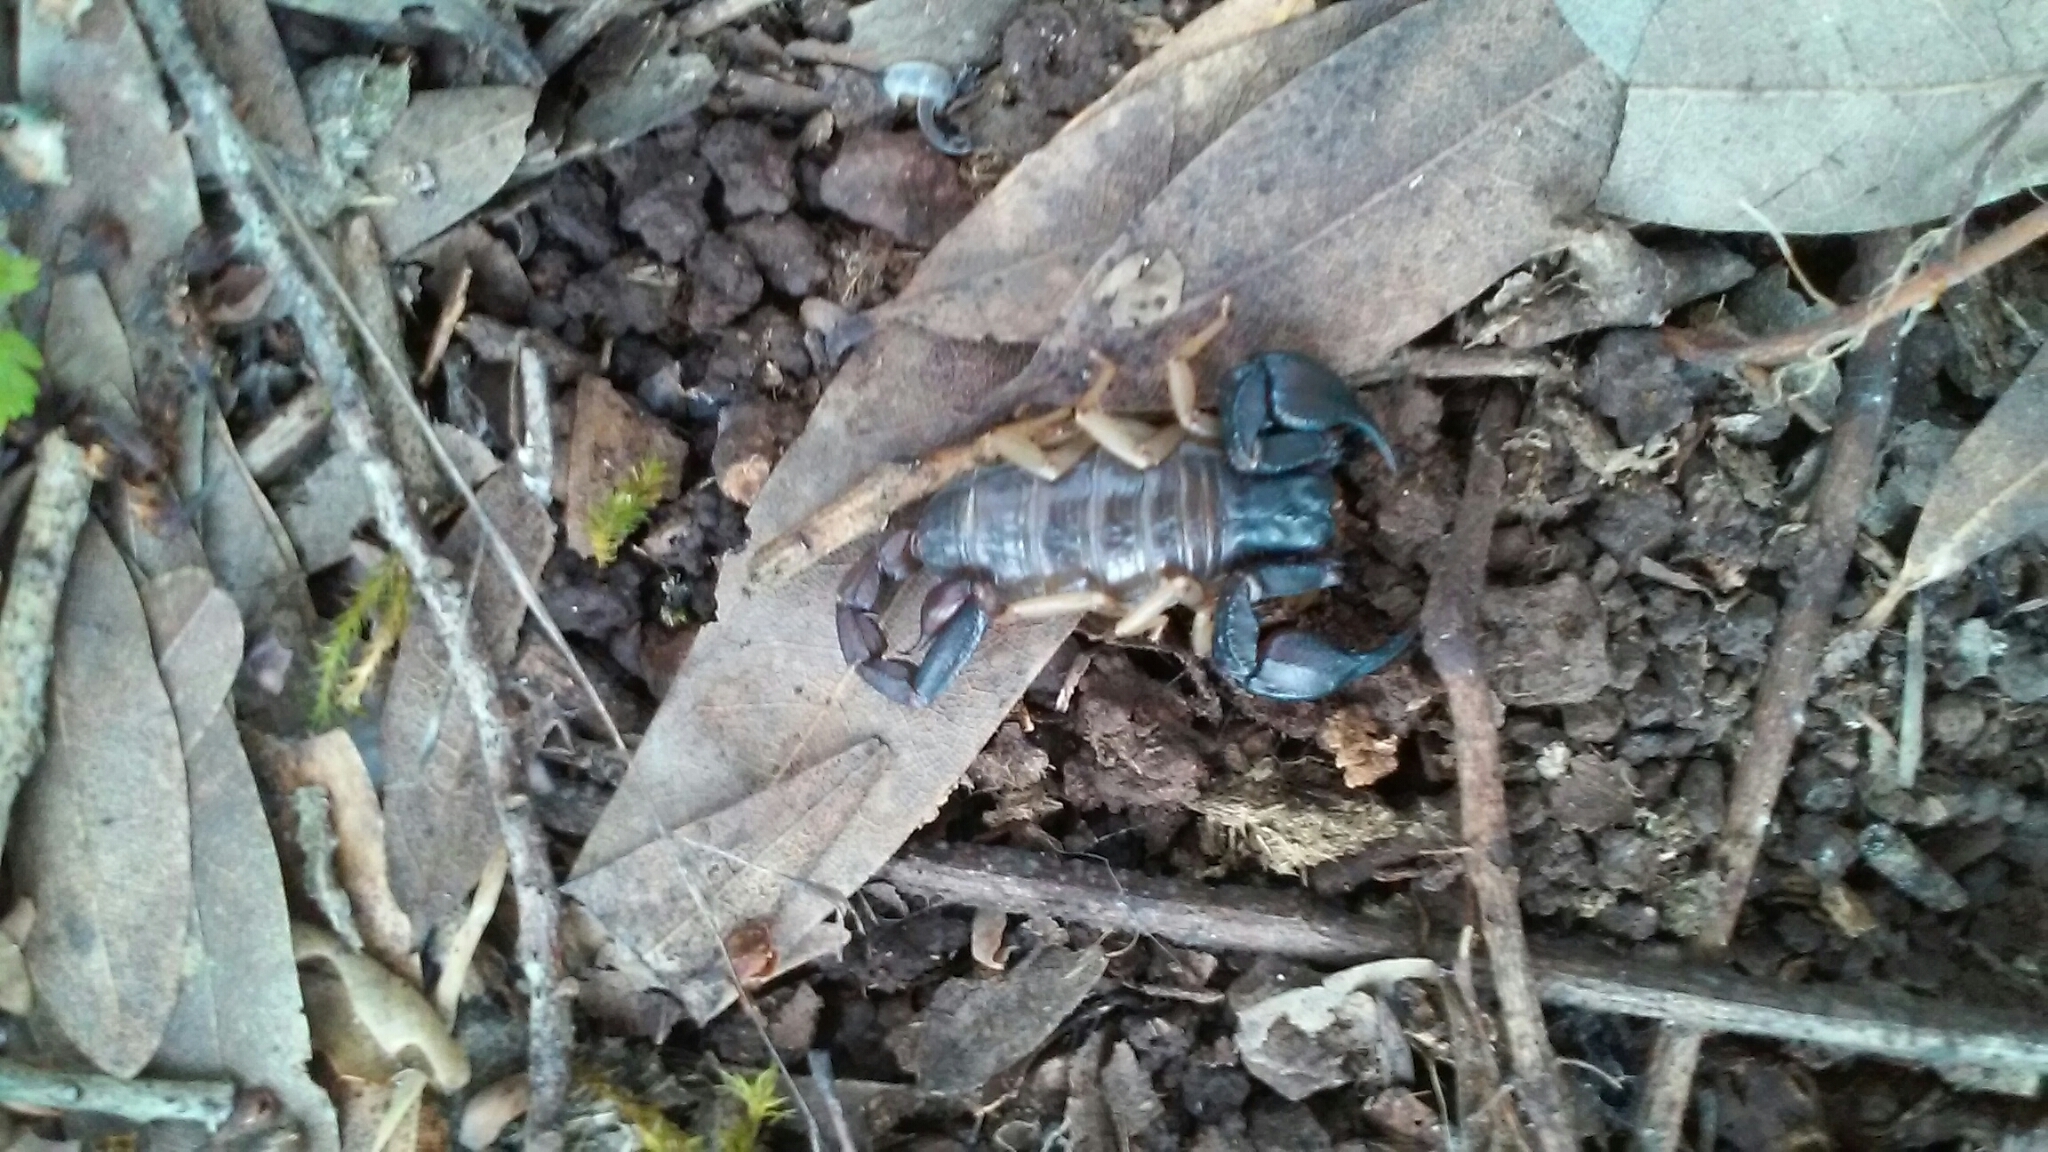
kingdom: Animalia
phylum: Arthropoda
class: Arachnida
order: Scorpiones
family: Chactidae
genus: Uroctonus
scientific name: Uroctonus mordax
